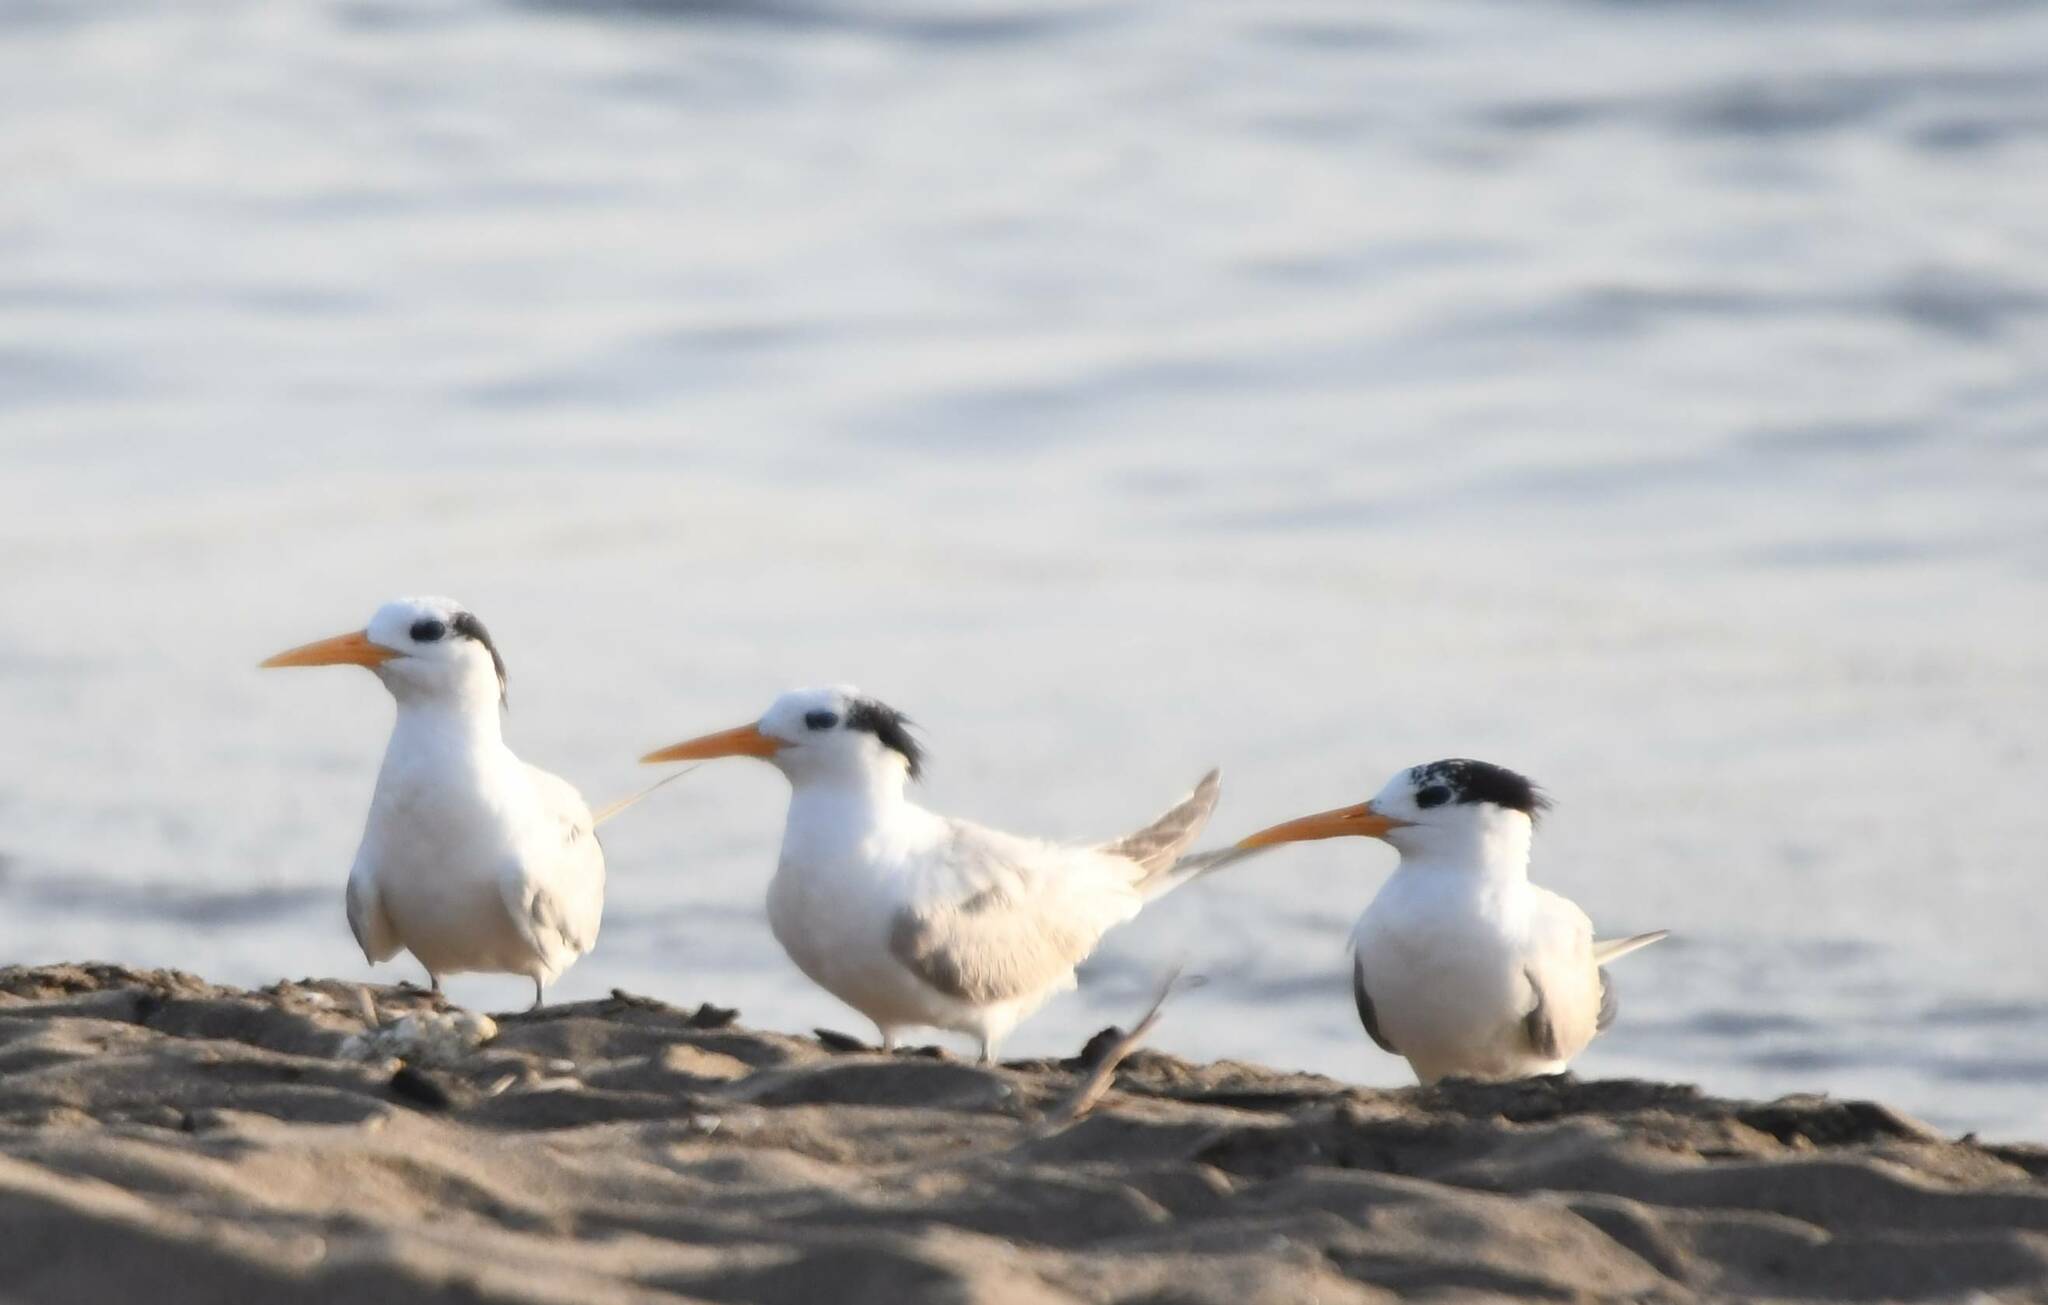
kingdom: Animalia
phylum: Chordata
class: Aves
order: Charadriiformes
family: Laridae
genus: Thalasseus
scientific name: Thalasseus bengalensis
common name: Lesser crested tern
